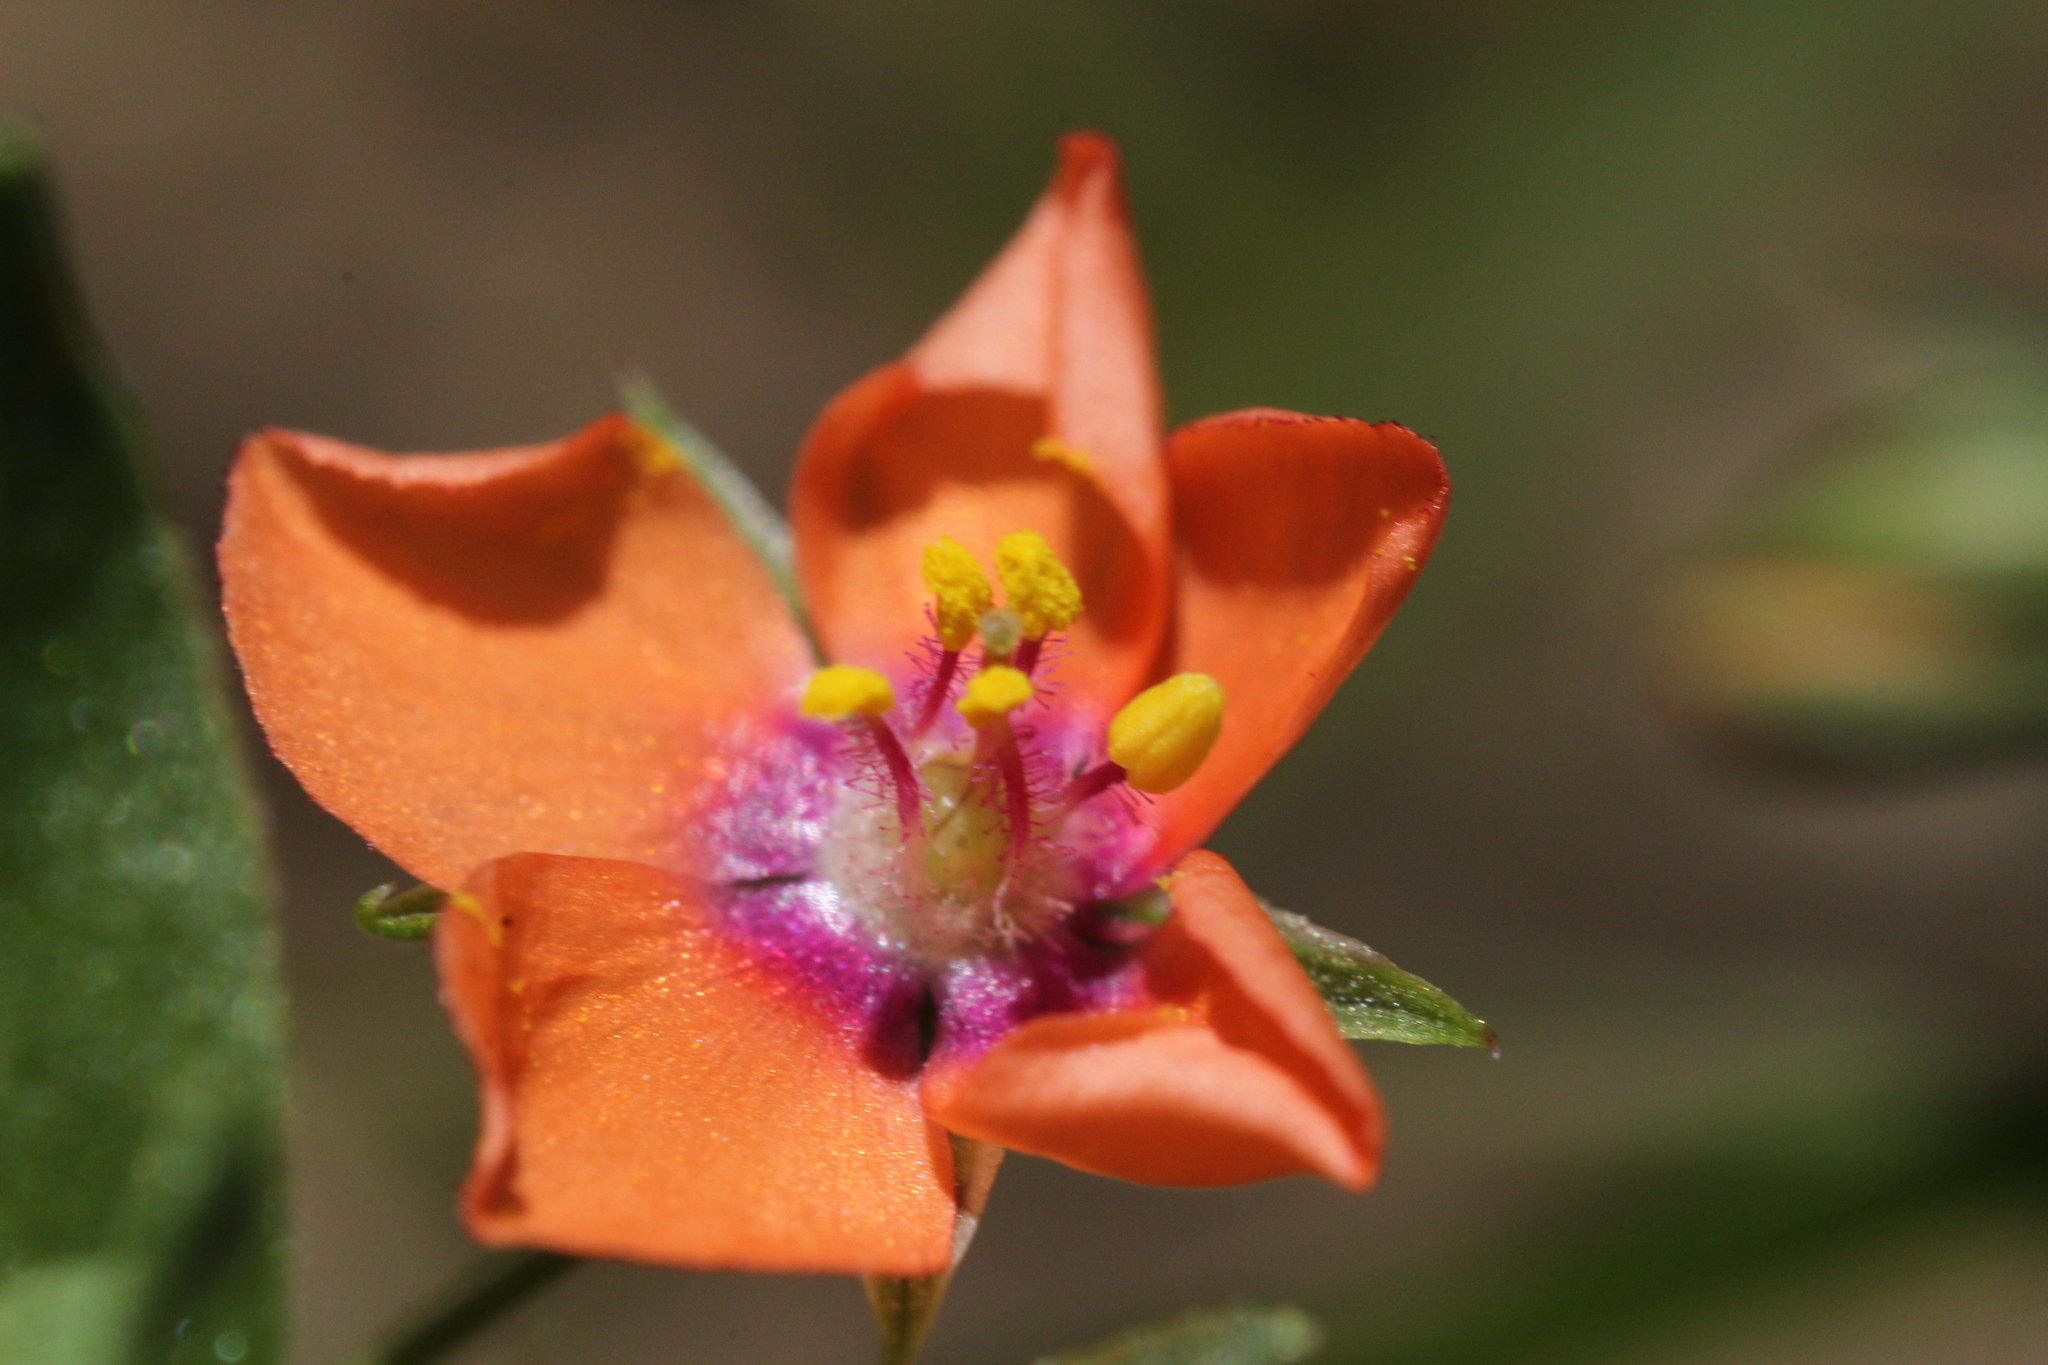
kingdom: Plantae
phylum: Tracheophyta
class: Magnoliopsida
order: Ericales
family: Primulaceae
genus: Lysimachia
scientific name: Lysimachia arvensis
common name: Scarlet pimpernel
